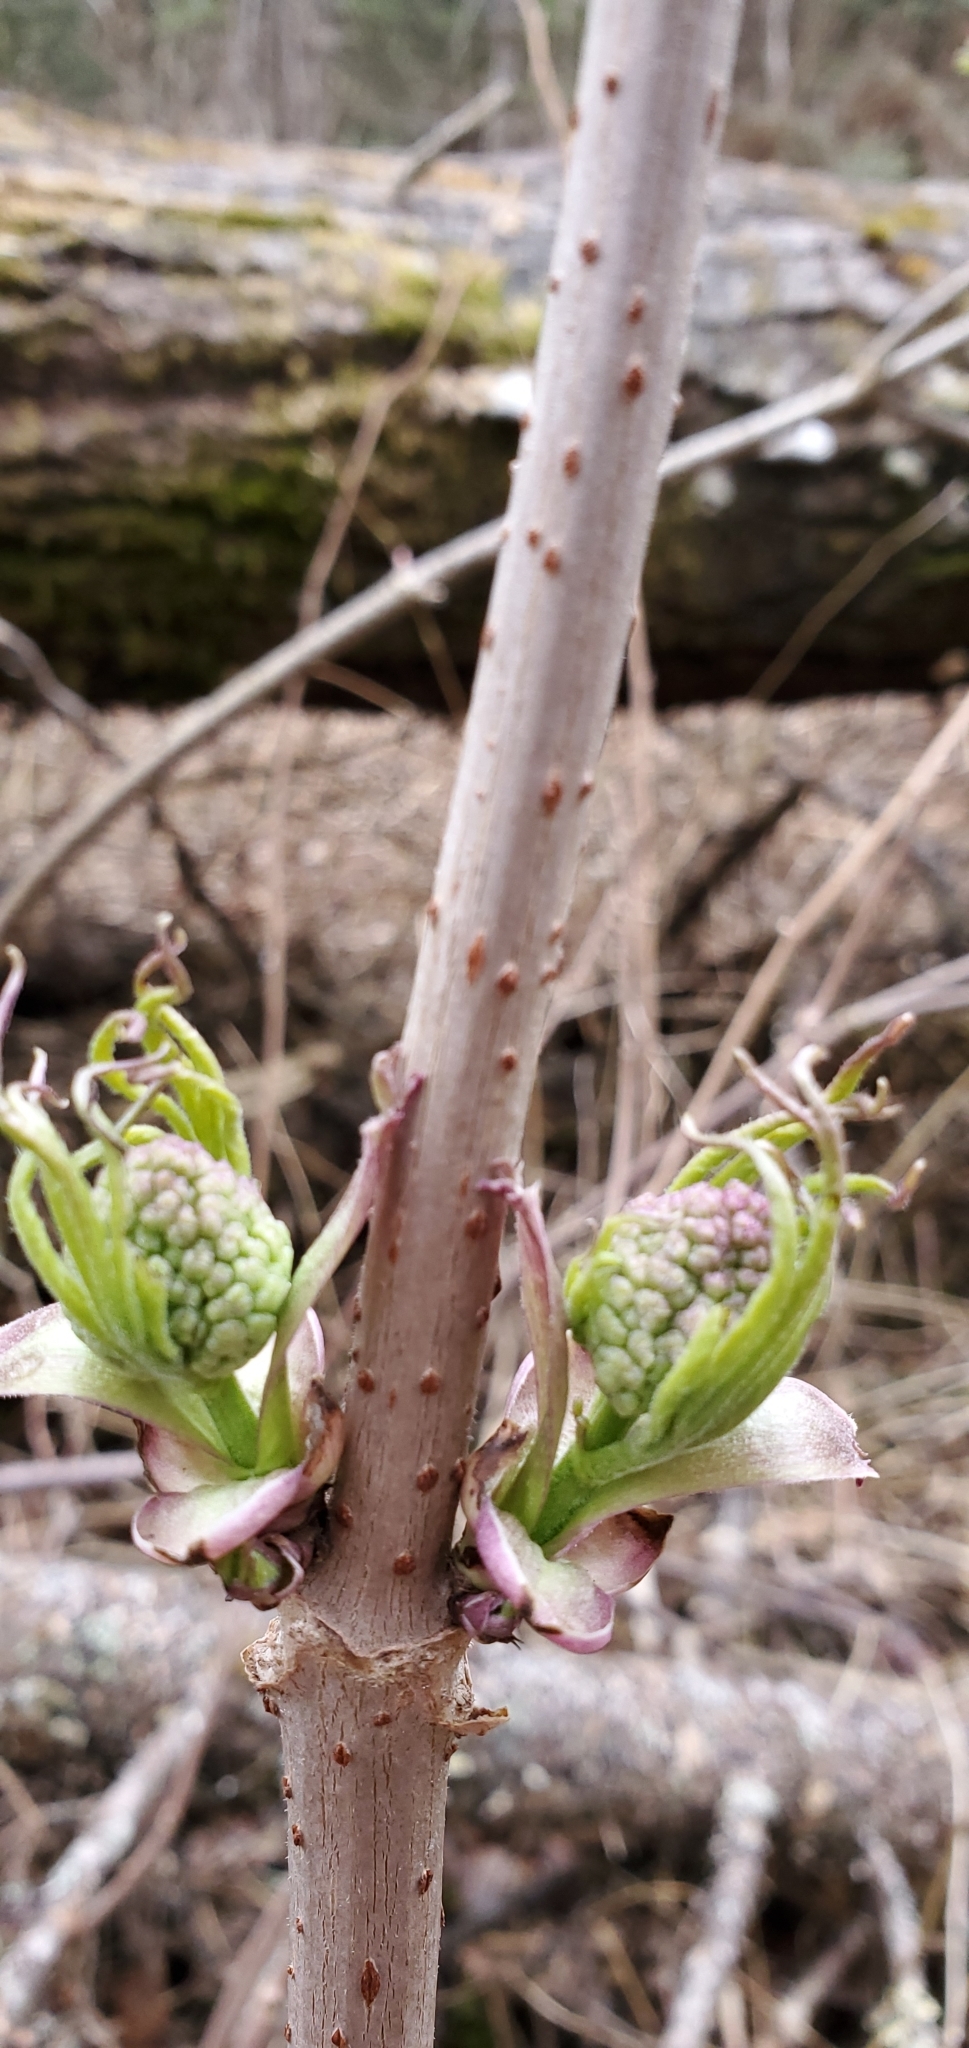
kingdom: Plantae
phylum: Tracheophyta
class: Magnoliopsida
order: Dipsacales
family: Viburnaceae
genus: Sambucus
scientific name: Sambucus racemosa
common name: Red-berried elder
